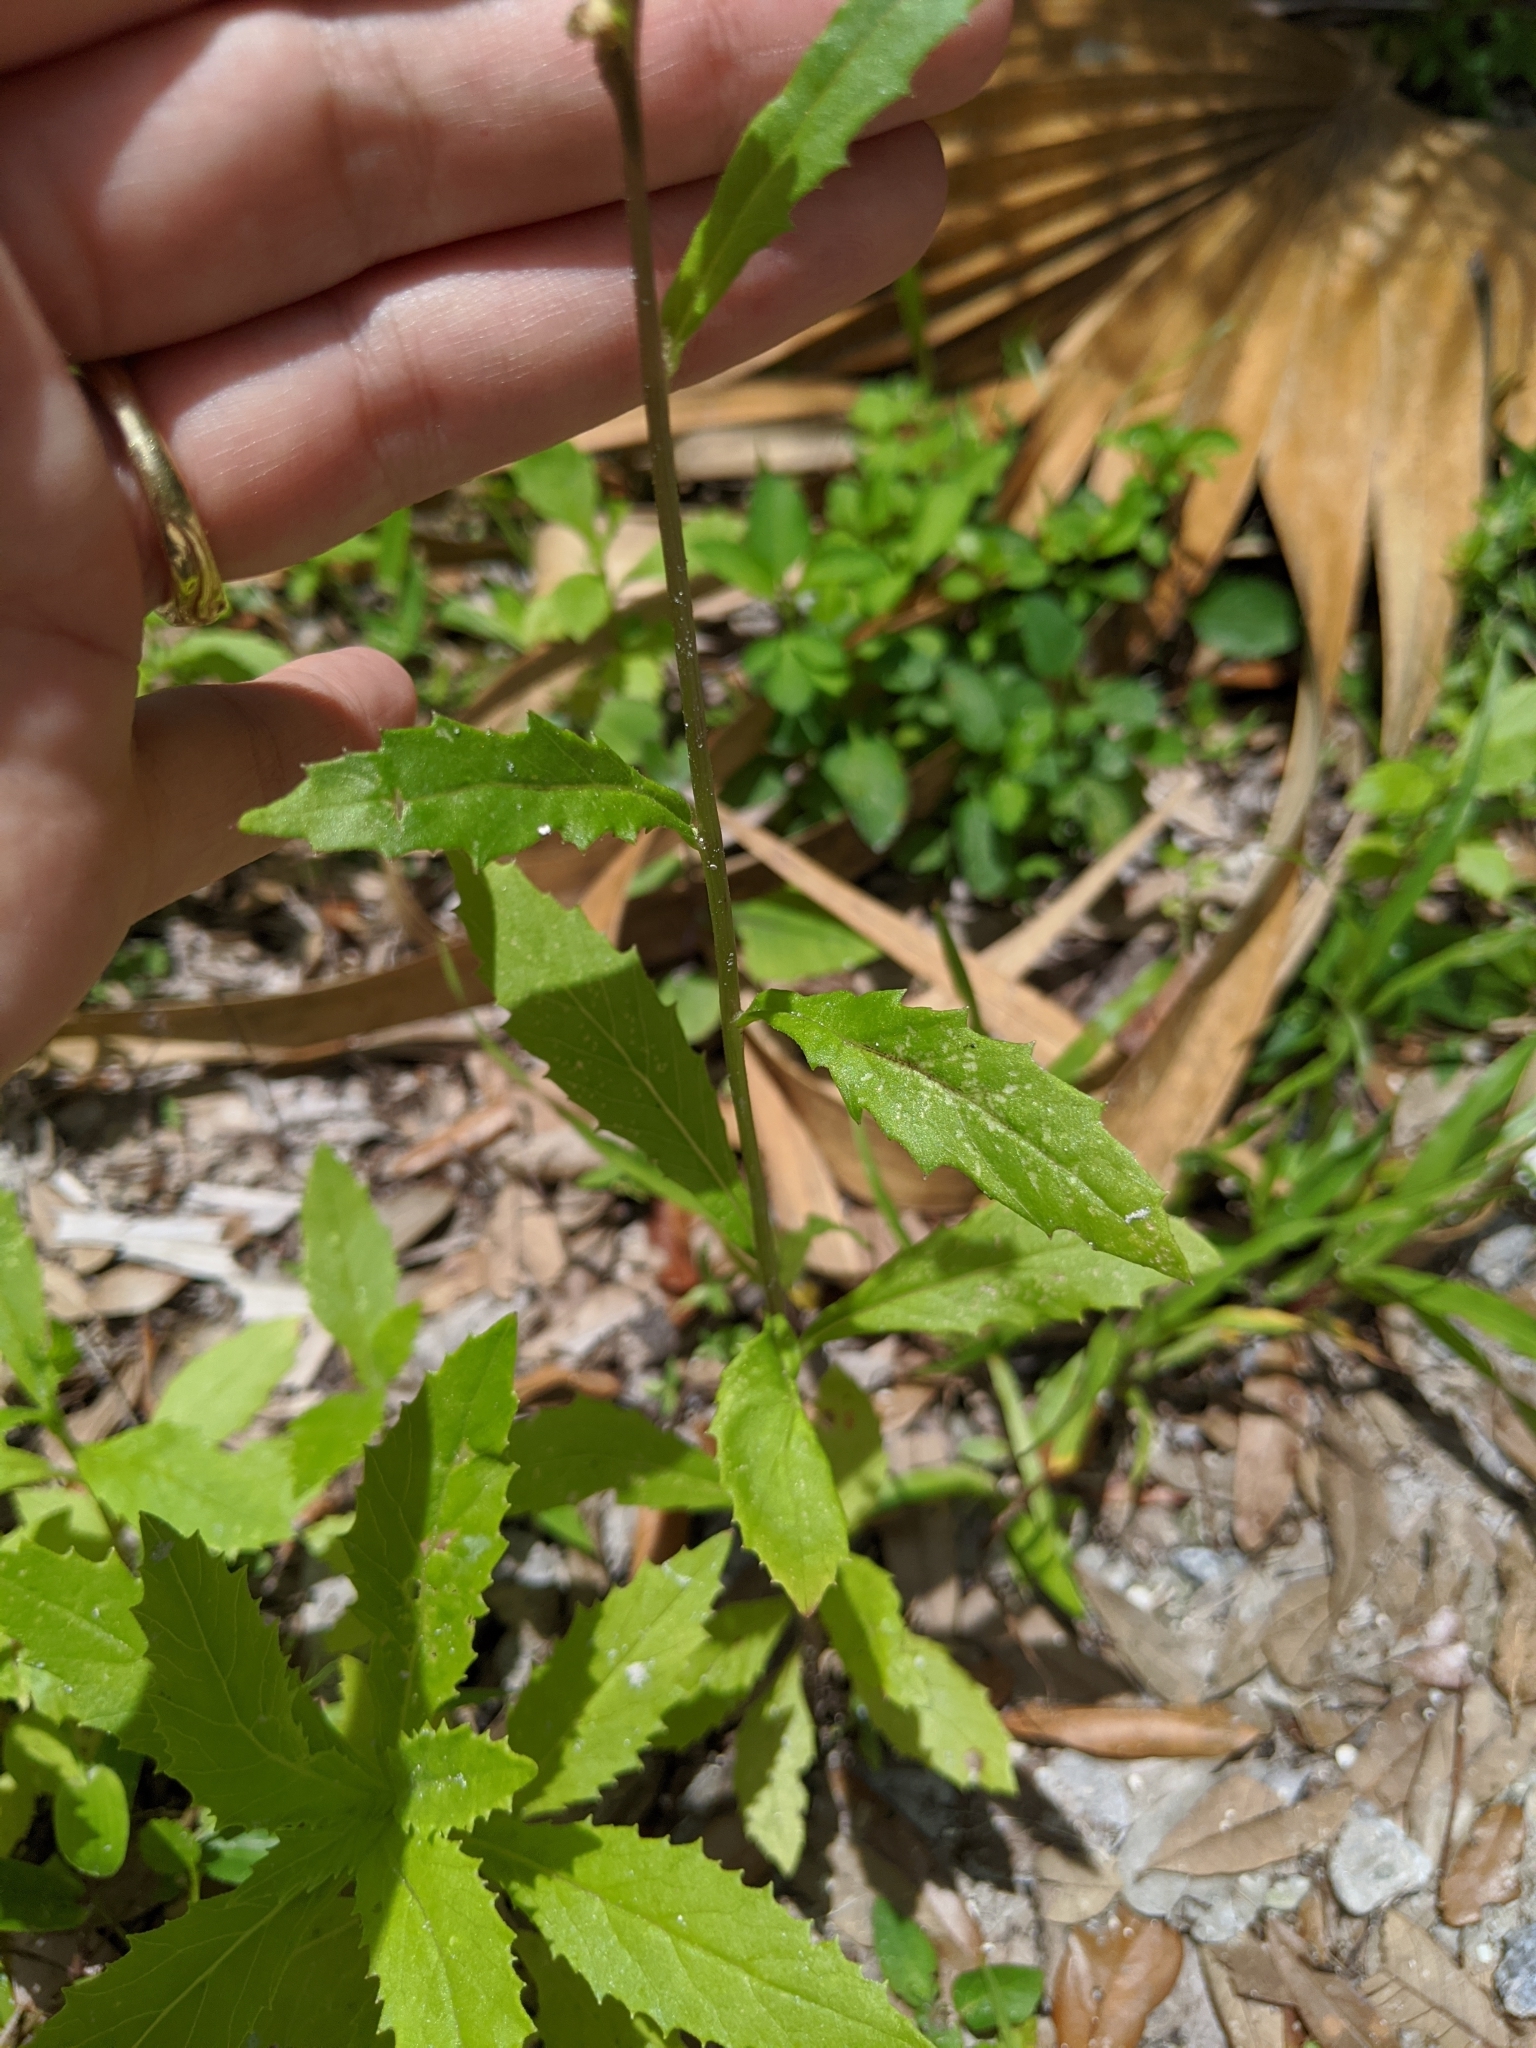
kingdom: Plantae
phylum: Tracheophyta
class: Magnoliopsida
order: Asterales
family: Asteraceae
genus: Erechtites
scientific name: Erechtites hieraciifolius
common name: American burnweed
